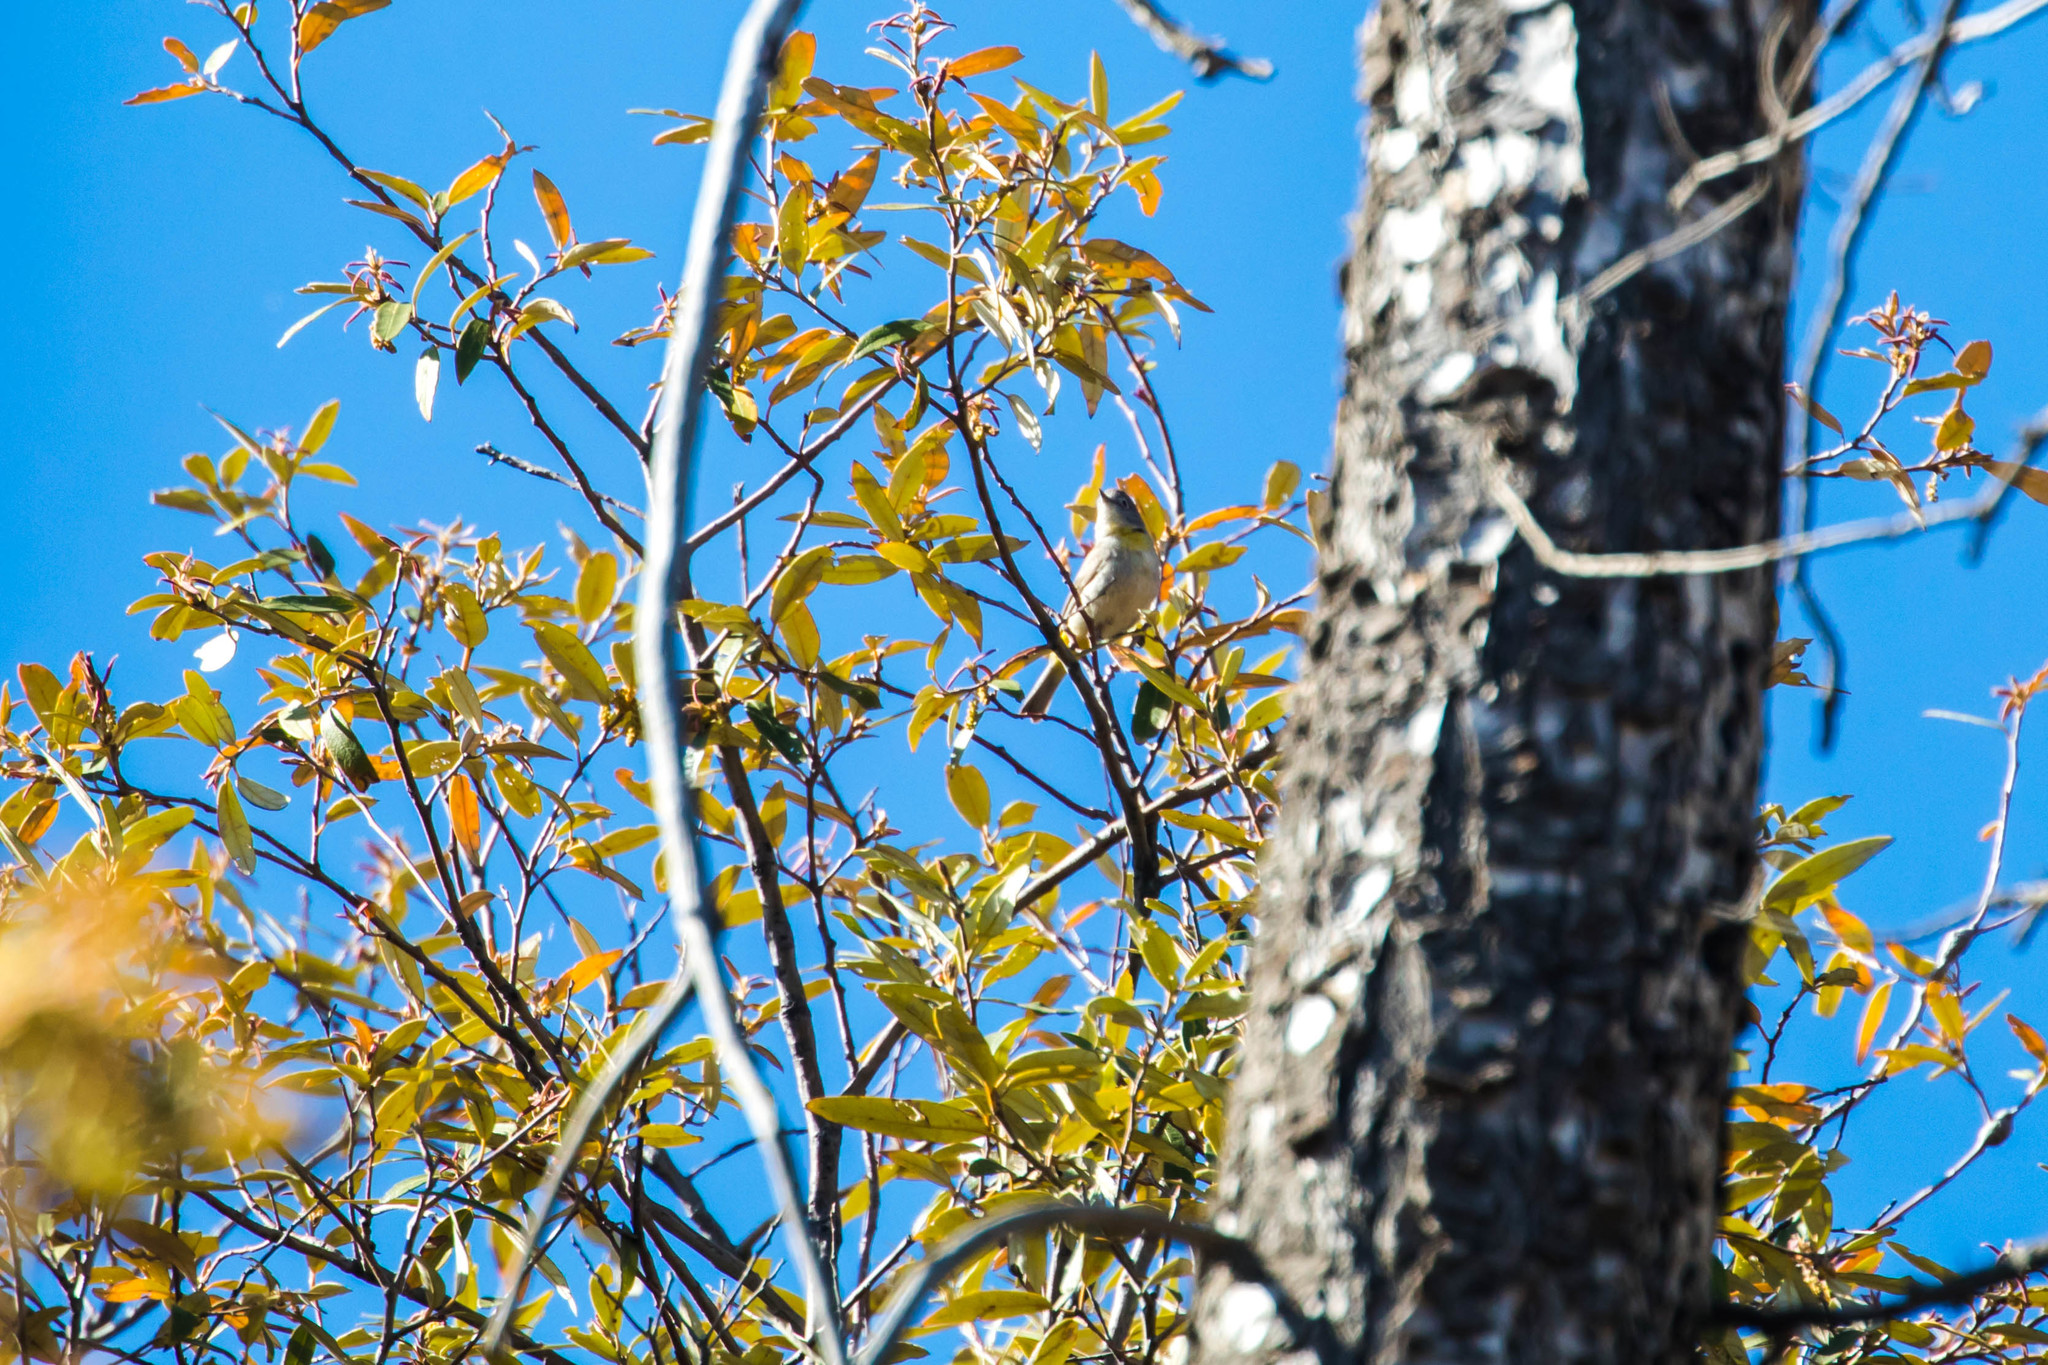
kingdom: Animalia
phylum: Chordata
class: Aves
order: Passeriformes
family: Parulidae
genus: Leiothlypis
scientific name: Leiothlypis virginiae
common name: Virginia's warbler
